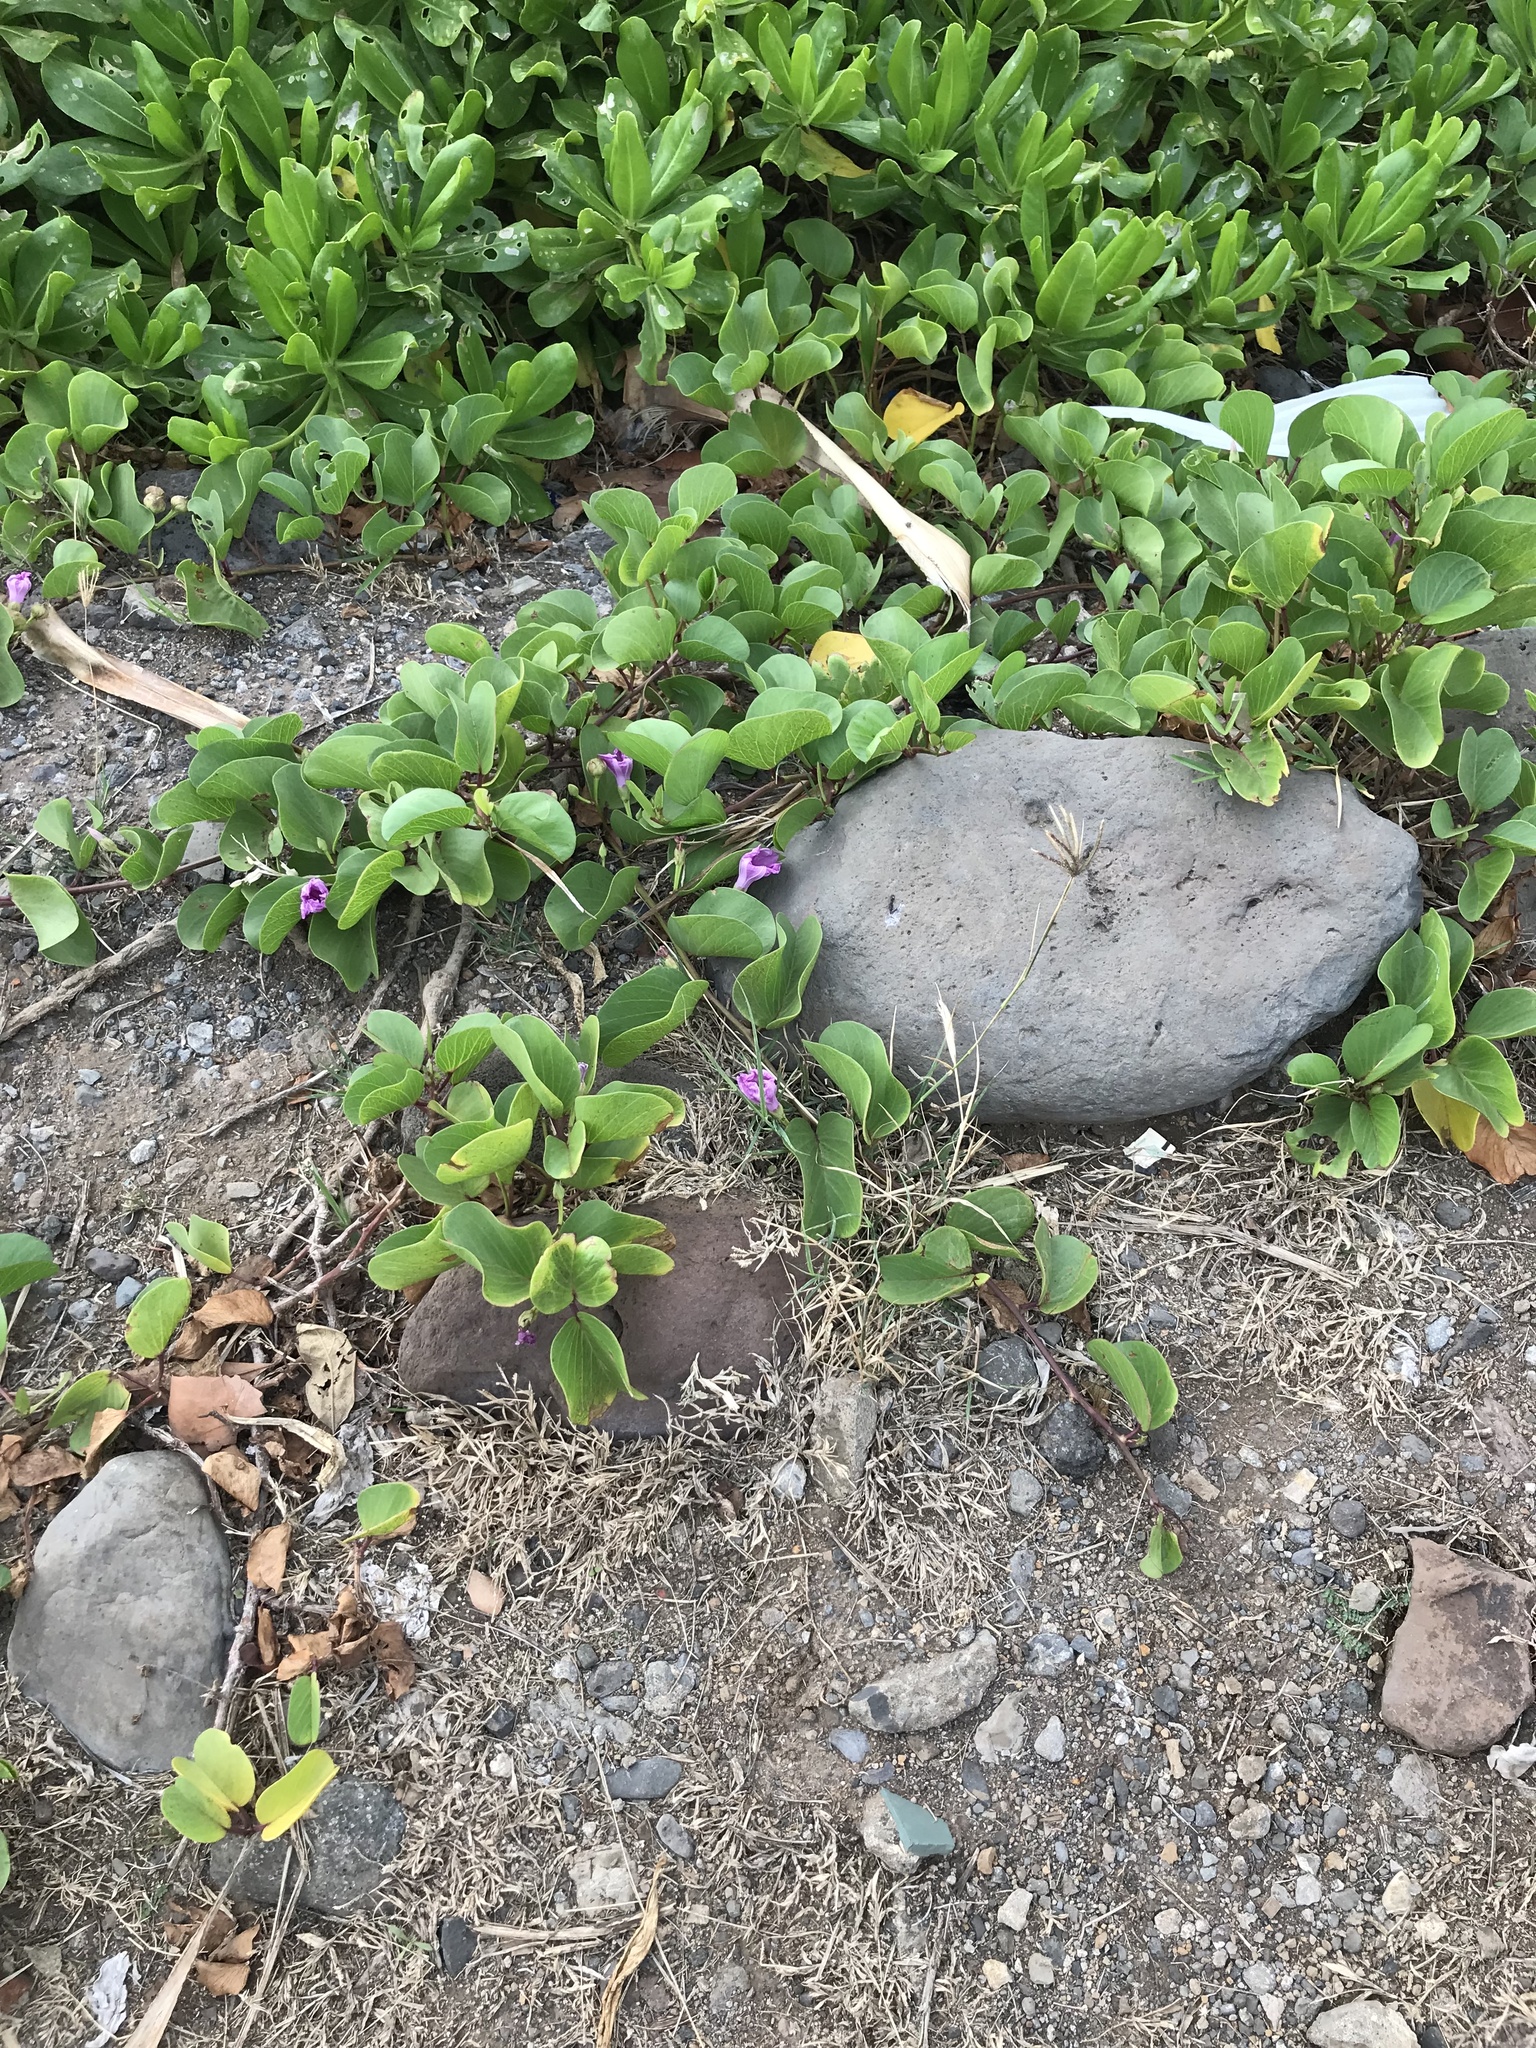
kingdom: Plantae
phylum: Tracheophyta
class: Magnoliopsida
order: Solanales
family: Convolvulaceae
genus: Ipomoea
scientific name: Ipomoea pes-caprae
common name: Beach morning glory
